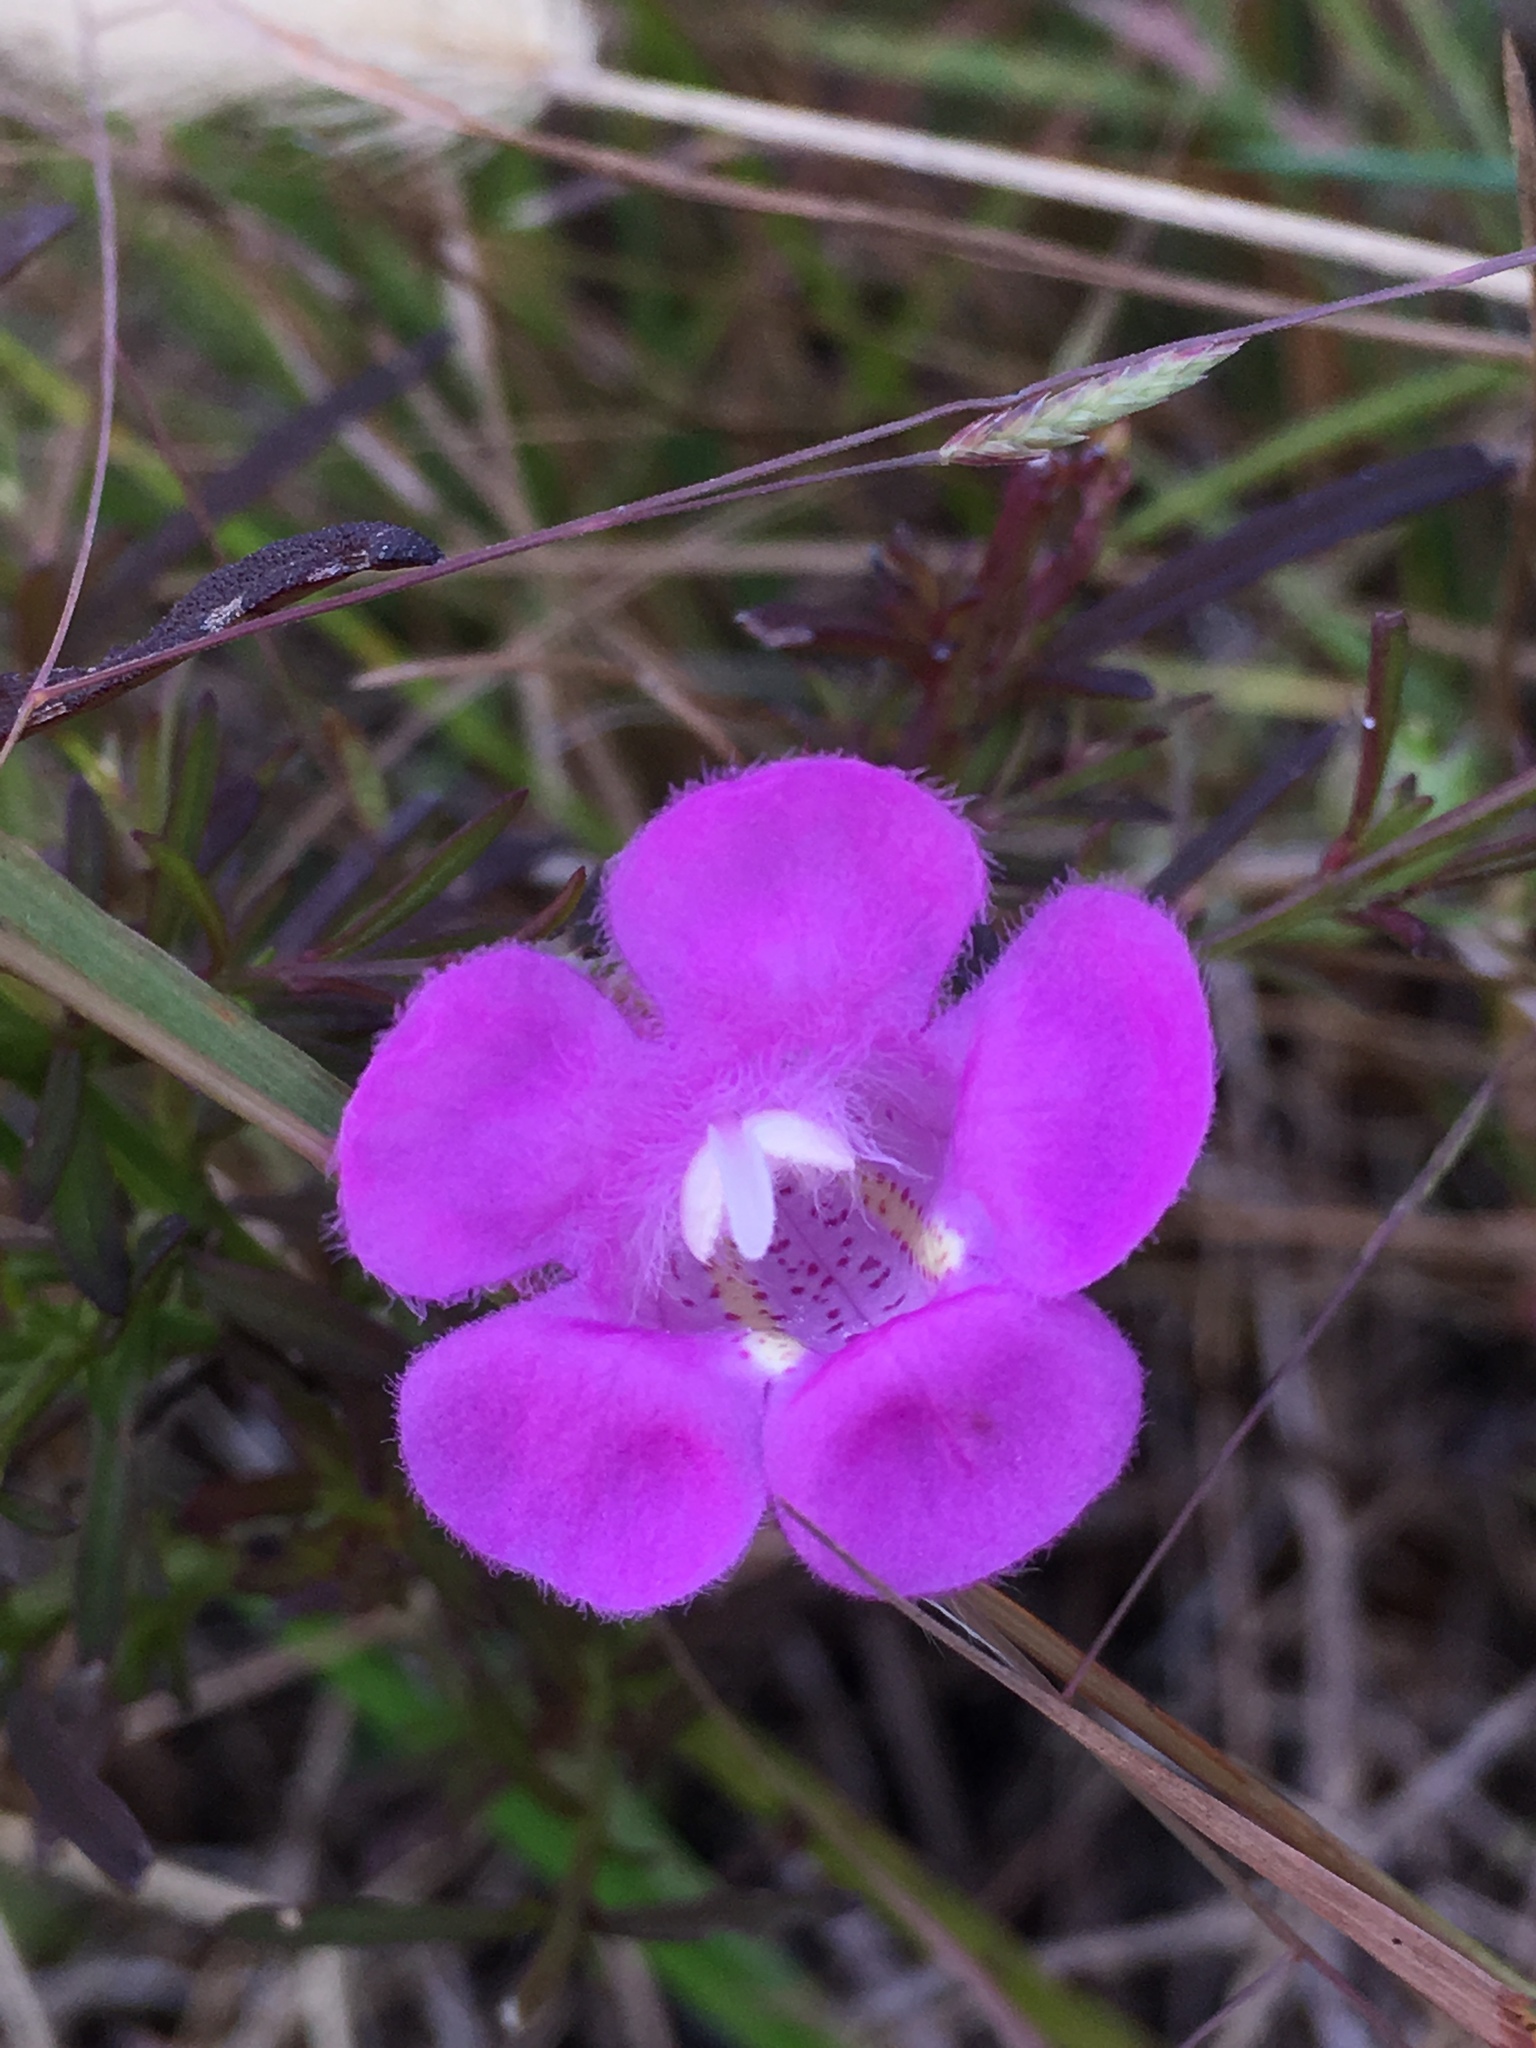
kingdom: Plantae
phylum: Tracheophyta
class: Magnoliopsida
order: Lamiales
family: Orobanchaceae
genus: Agalinis
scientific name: Agalinis purpurea
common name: Purple false foxglove
